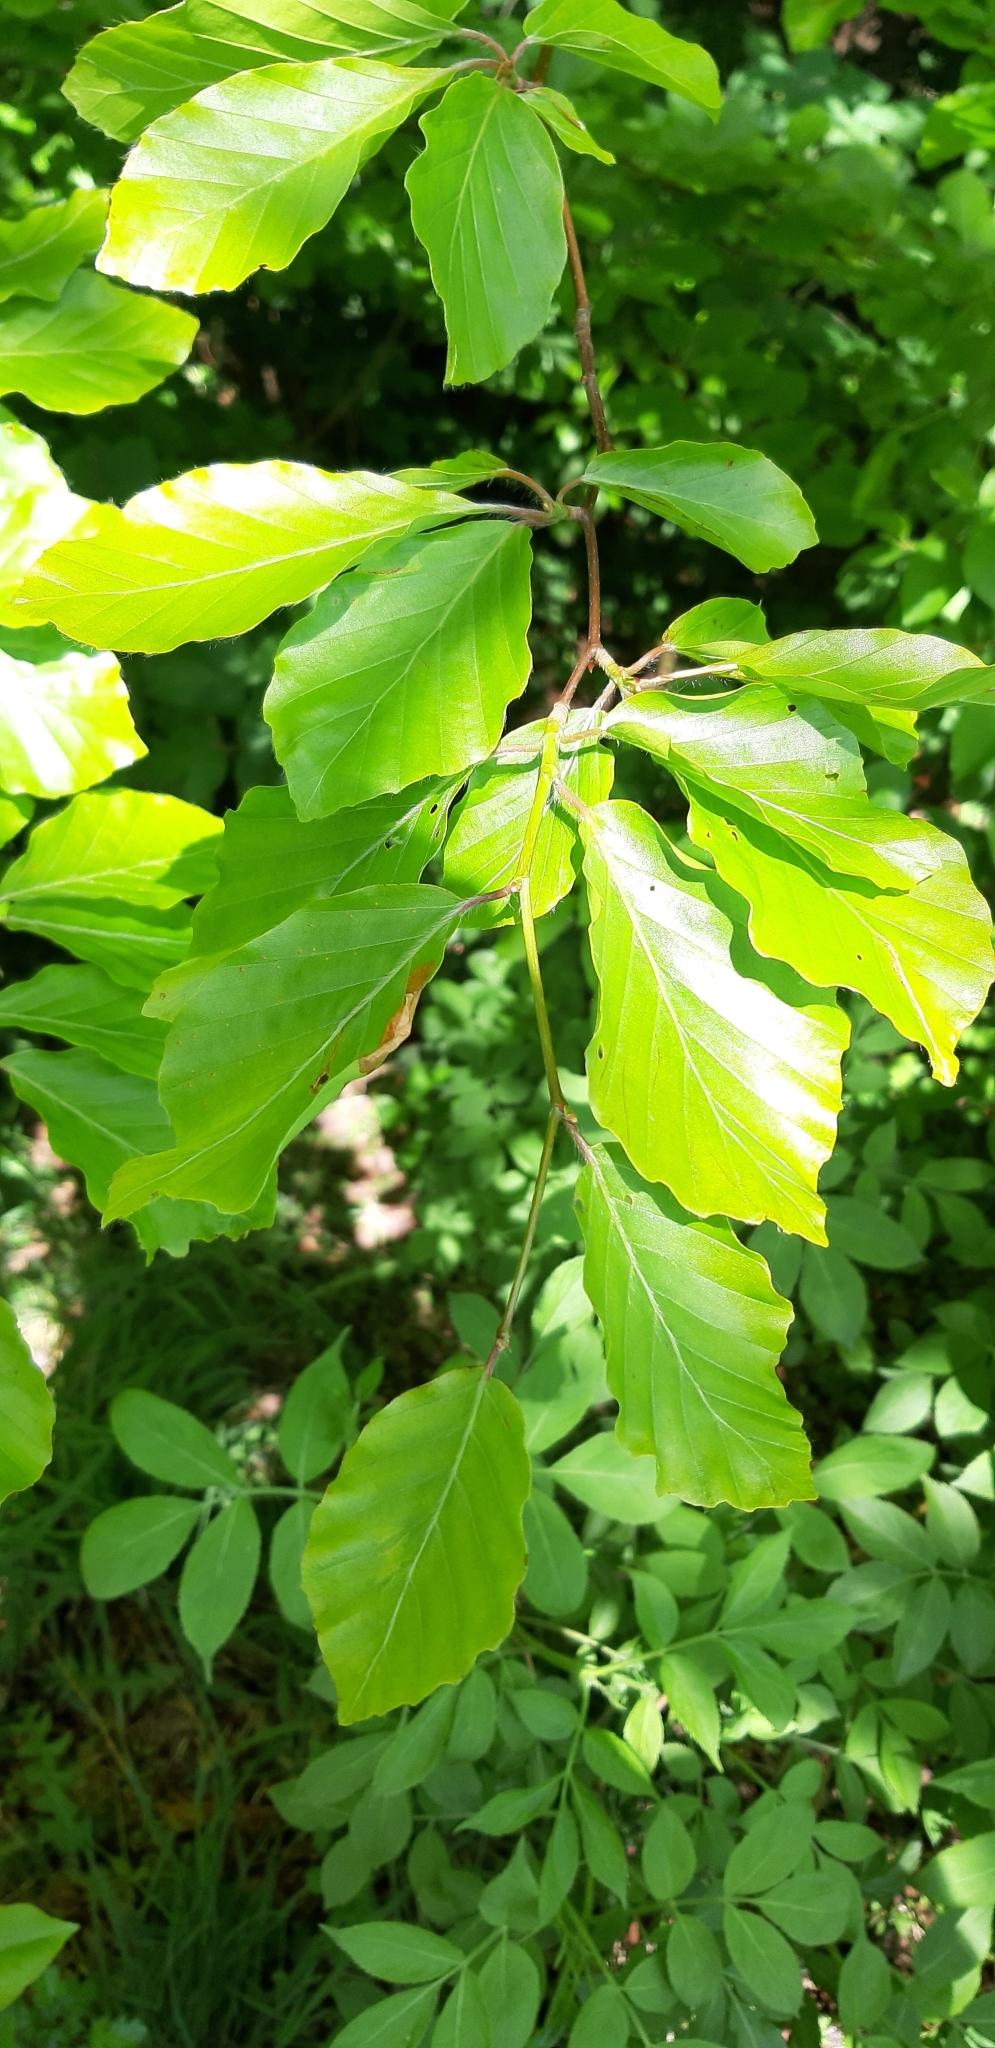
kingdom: Plantae
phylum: Tracheophyta
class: Magnoliopsida
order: Fagales
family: Fagaceae
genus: Fagus
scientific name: Fagus sylvatica
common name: Beech
